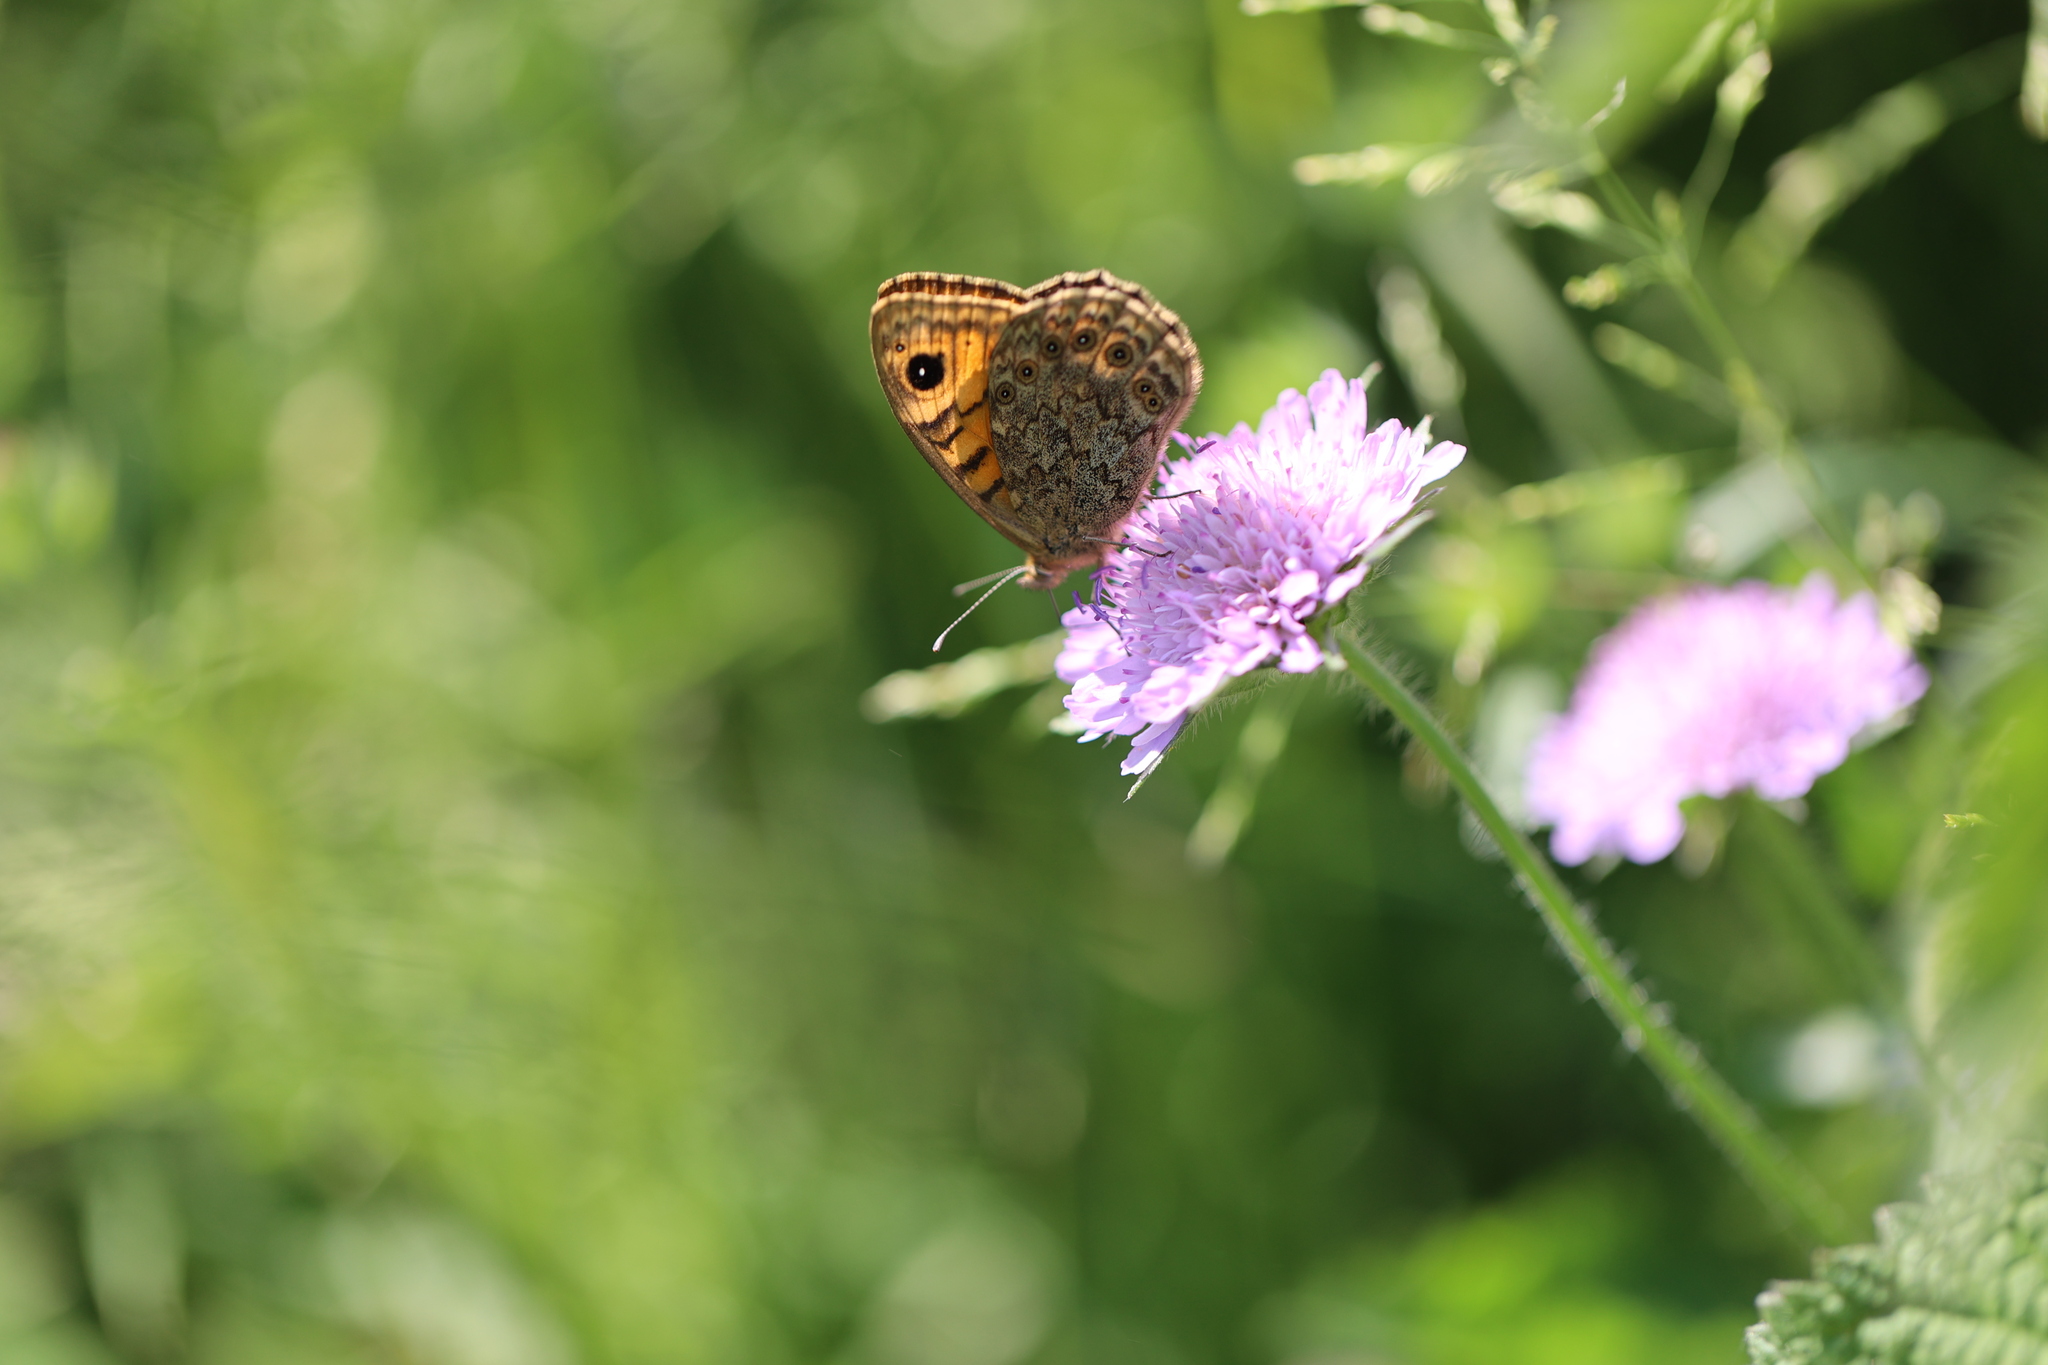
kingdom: Animalia
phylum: Arthropoda
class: Insecta
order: Lepidoptera
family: Nymphalidae
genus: Pararge
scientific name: Pararge Lasiommata megera
